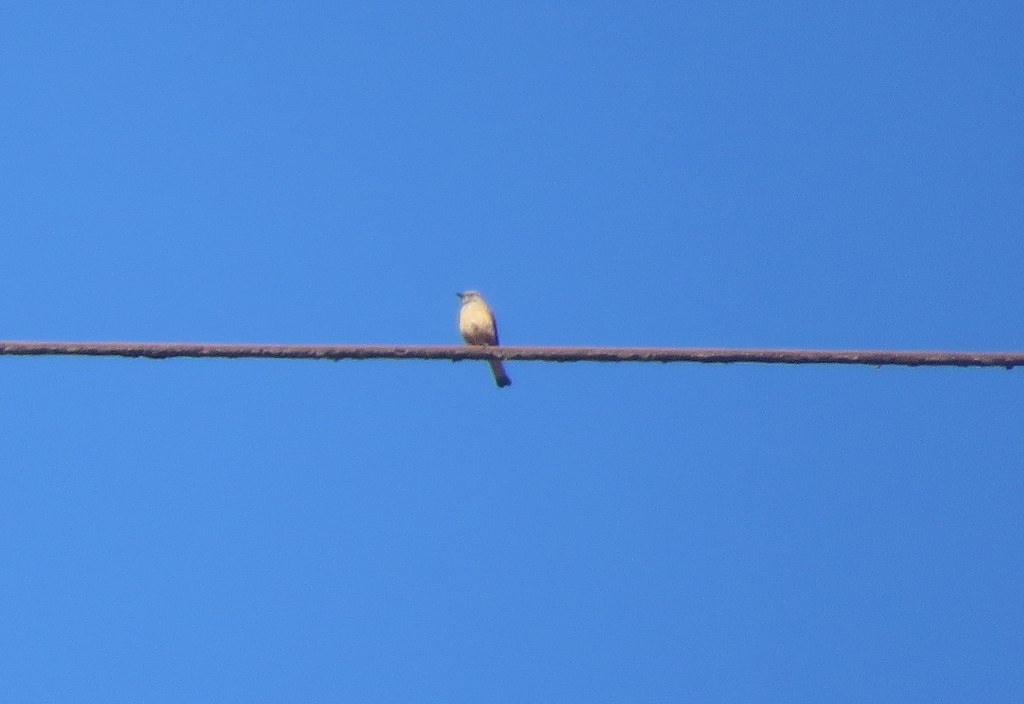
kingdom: Animalia
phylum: Chordata
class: Aves
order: Passeriformes
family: Tyrannidae
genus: Myiotheretes
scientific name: Myiotheretes striaticollis
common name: Streak-throated bush tyrant
